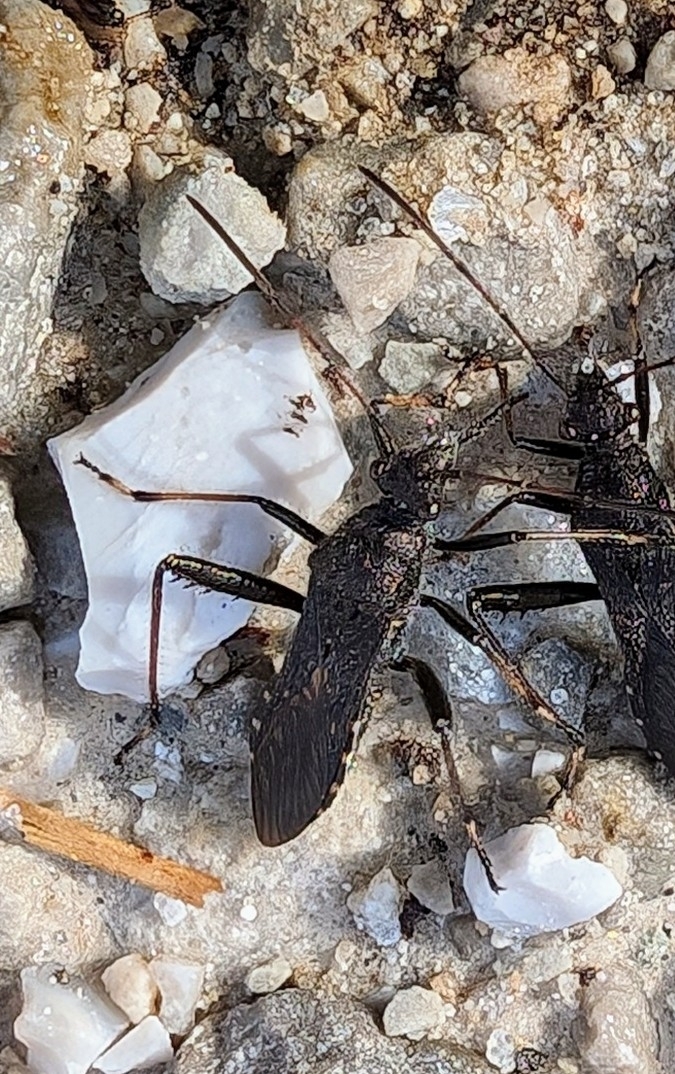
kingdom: Animalia
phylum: Arthropoda
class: Insecta
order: Hemiptera
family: Alydidae
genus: Alydus
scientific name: Alydus eurinus
